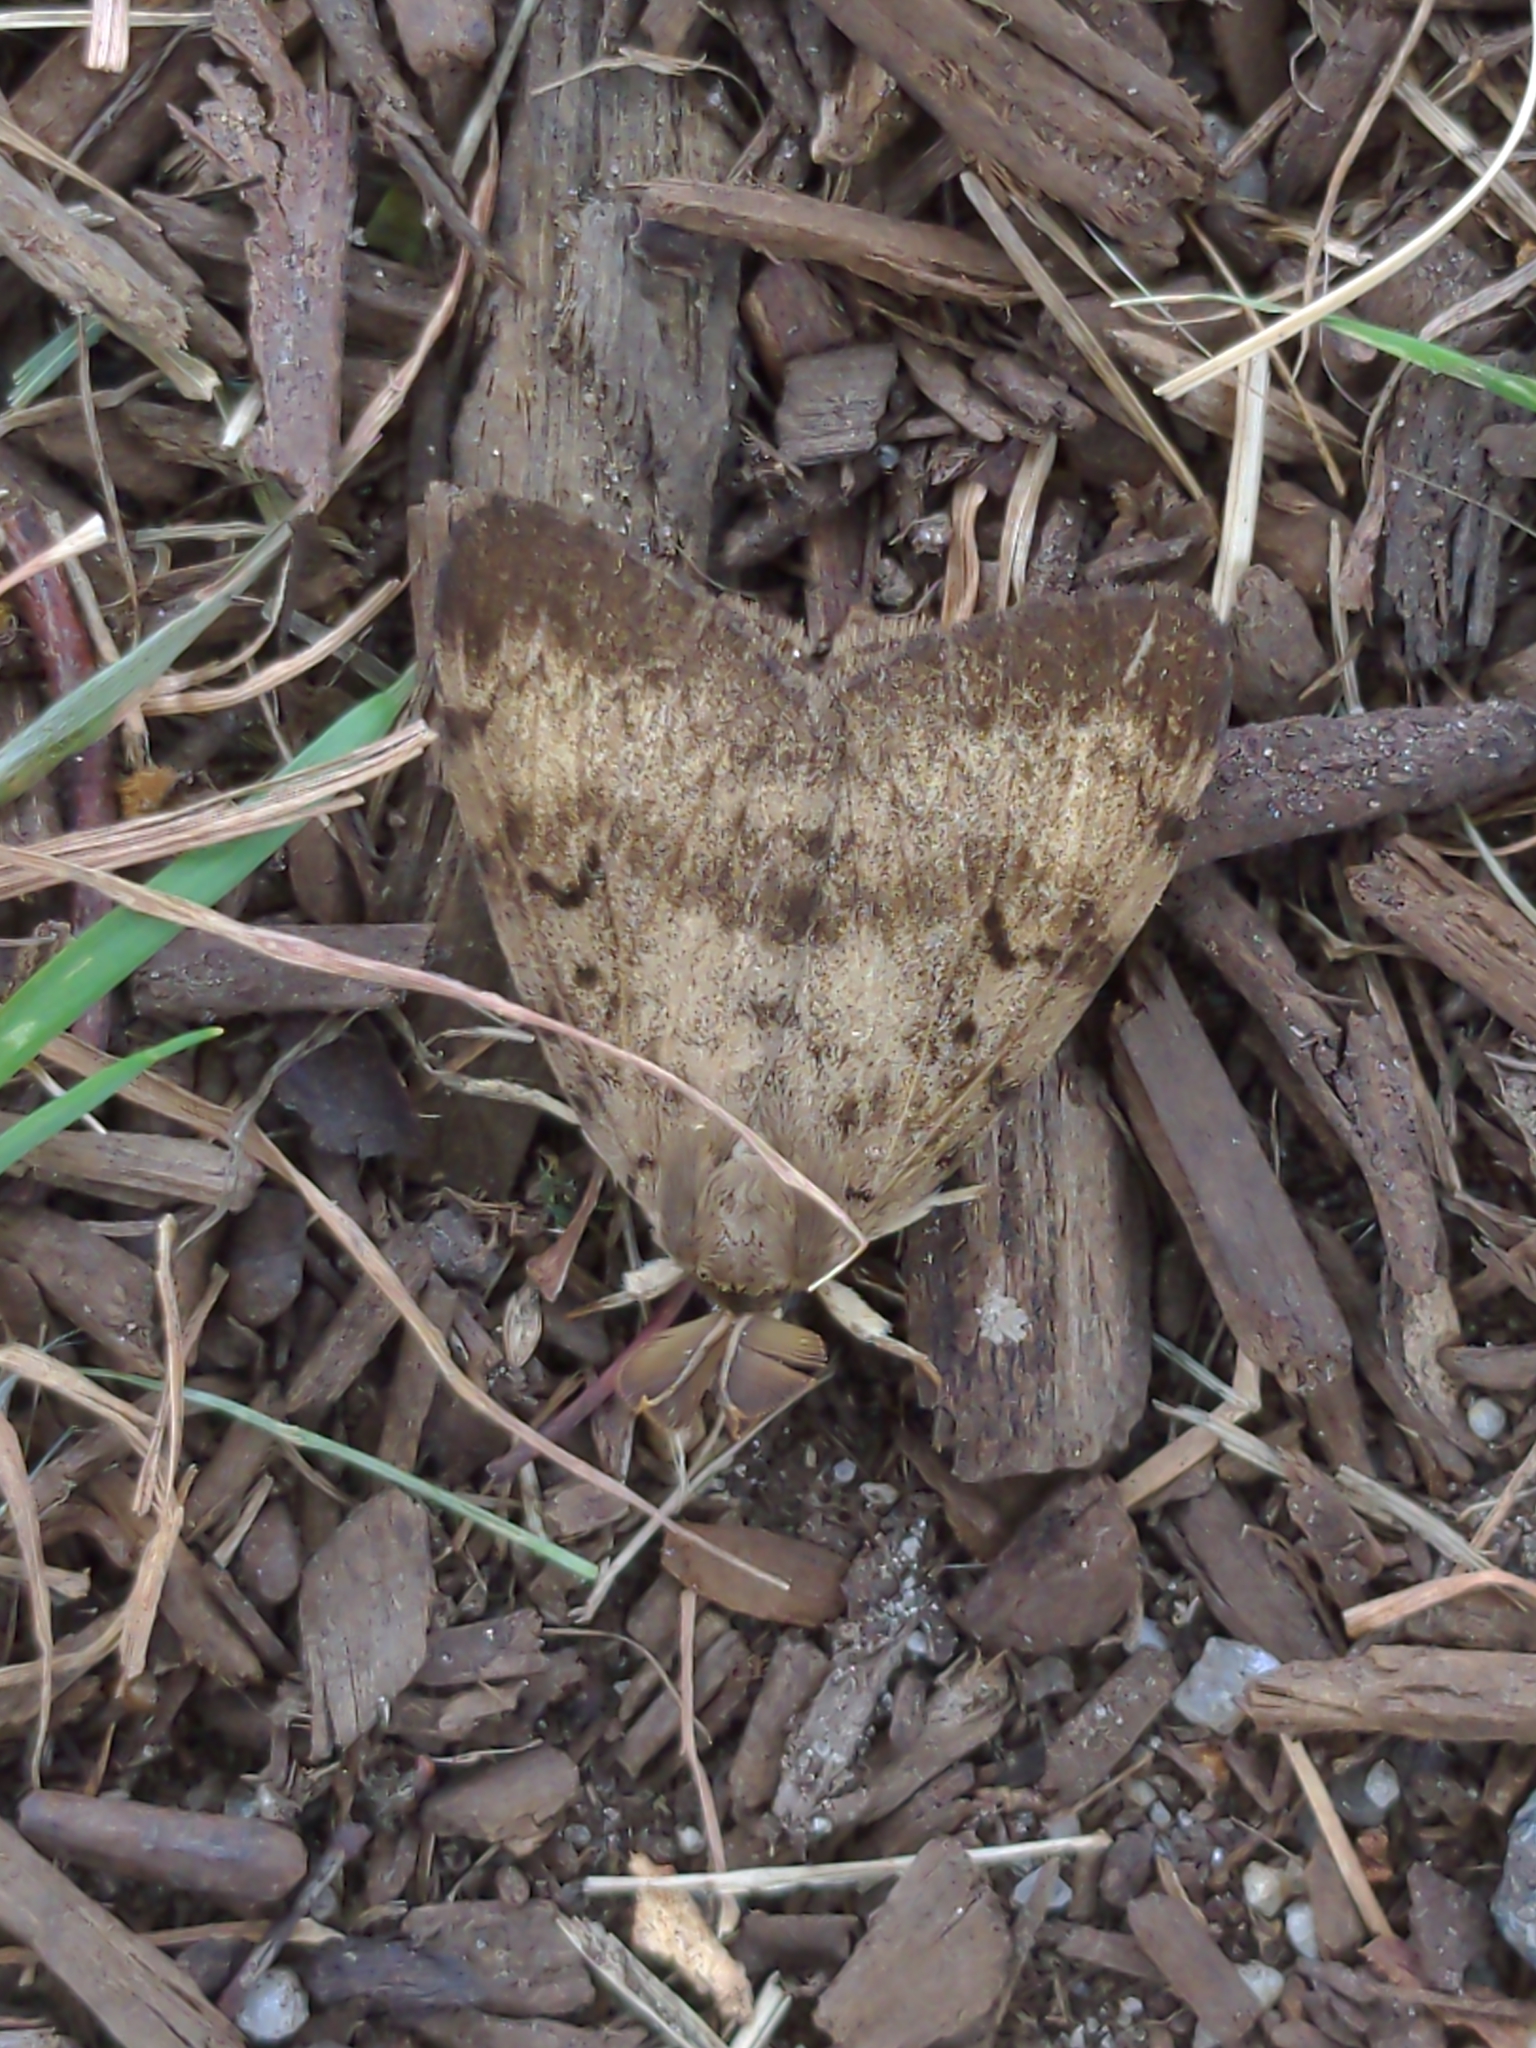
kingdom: Animalia
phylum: Arthropoda
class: Insecta
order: Lepidoptera
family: Erebidae
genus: Lymantria
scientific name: Lymantria dispar
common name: Gypsy moth
